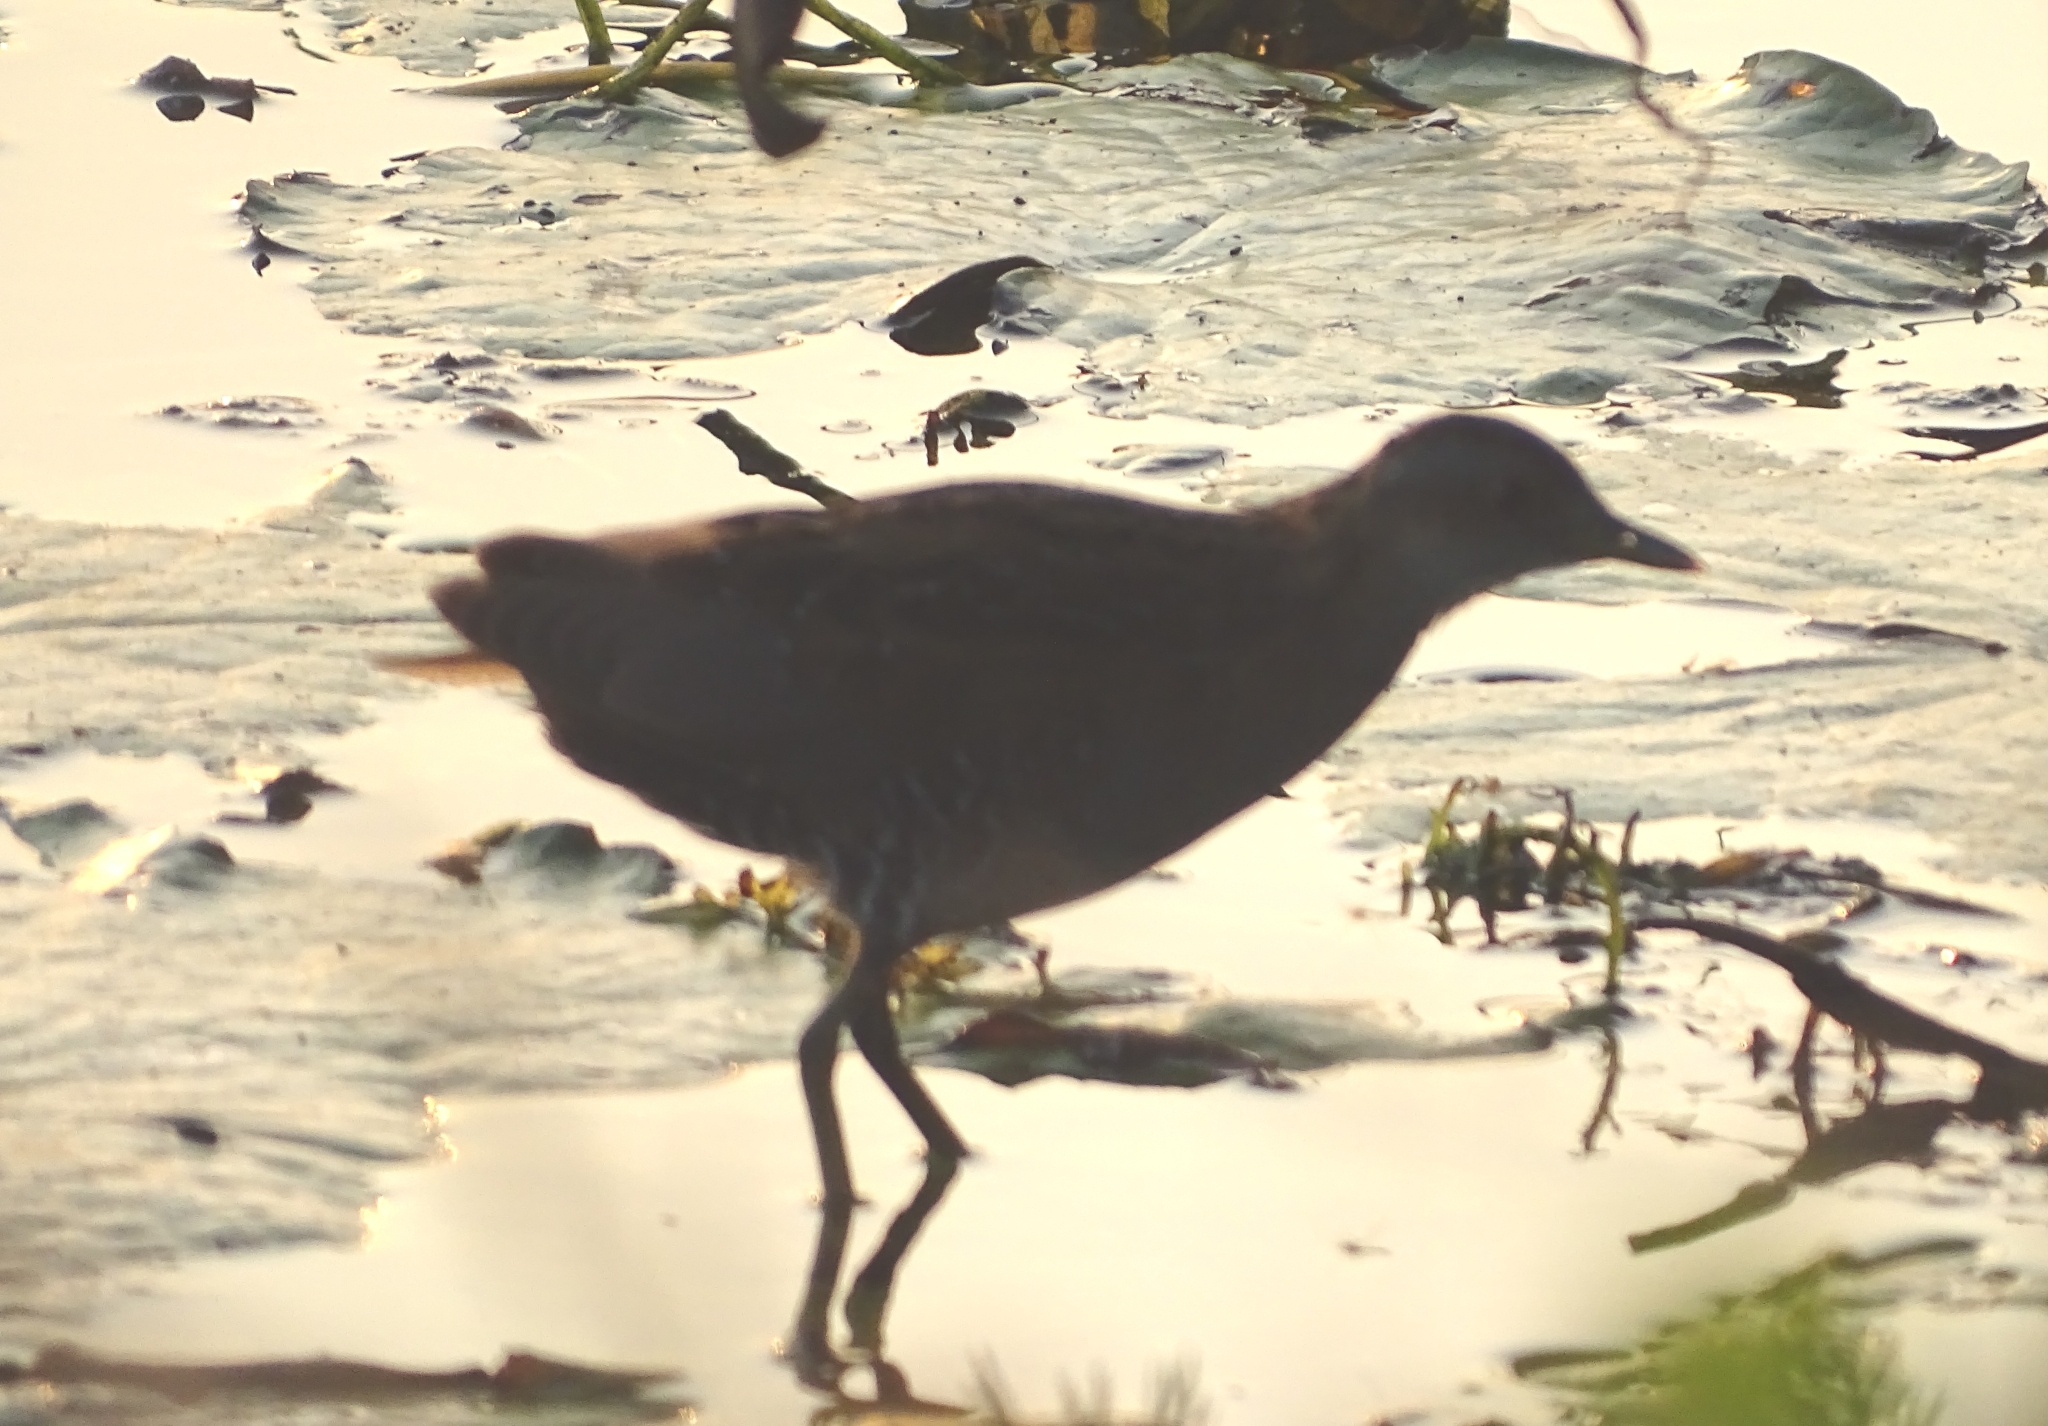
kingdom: Animalia
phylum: Chordata
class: Aves
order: Gruiformes
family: Rallidae
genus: Porzana
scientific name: Porzana pusilla
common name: Baillon's crake
